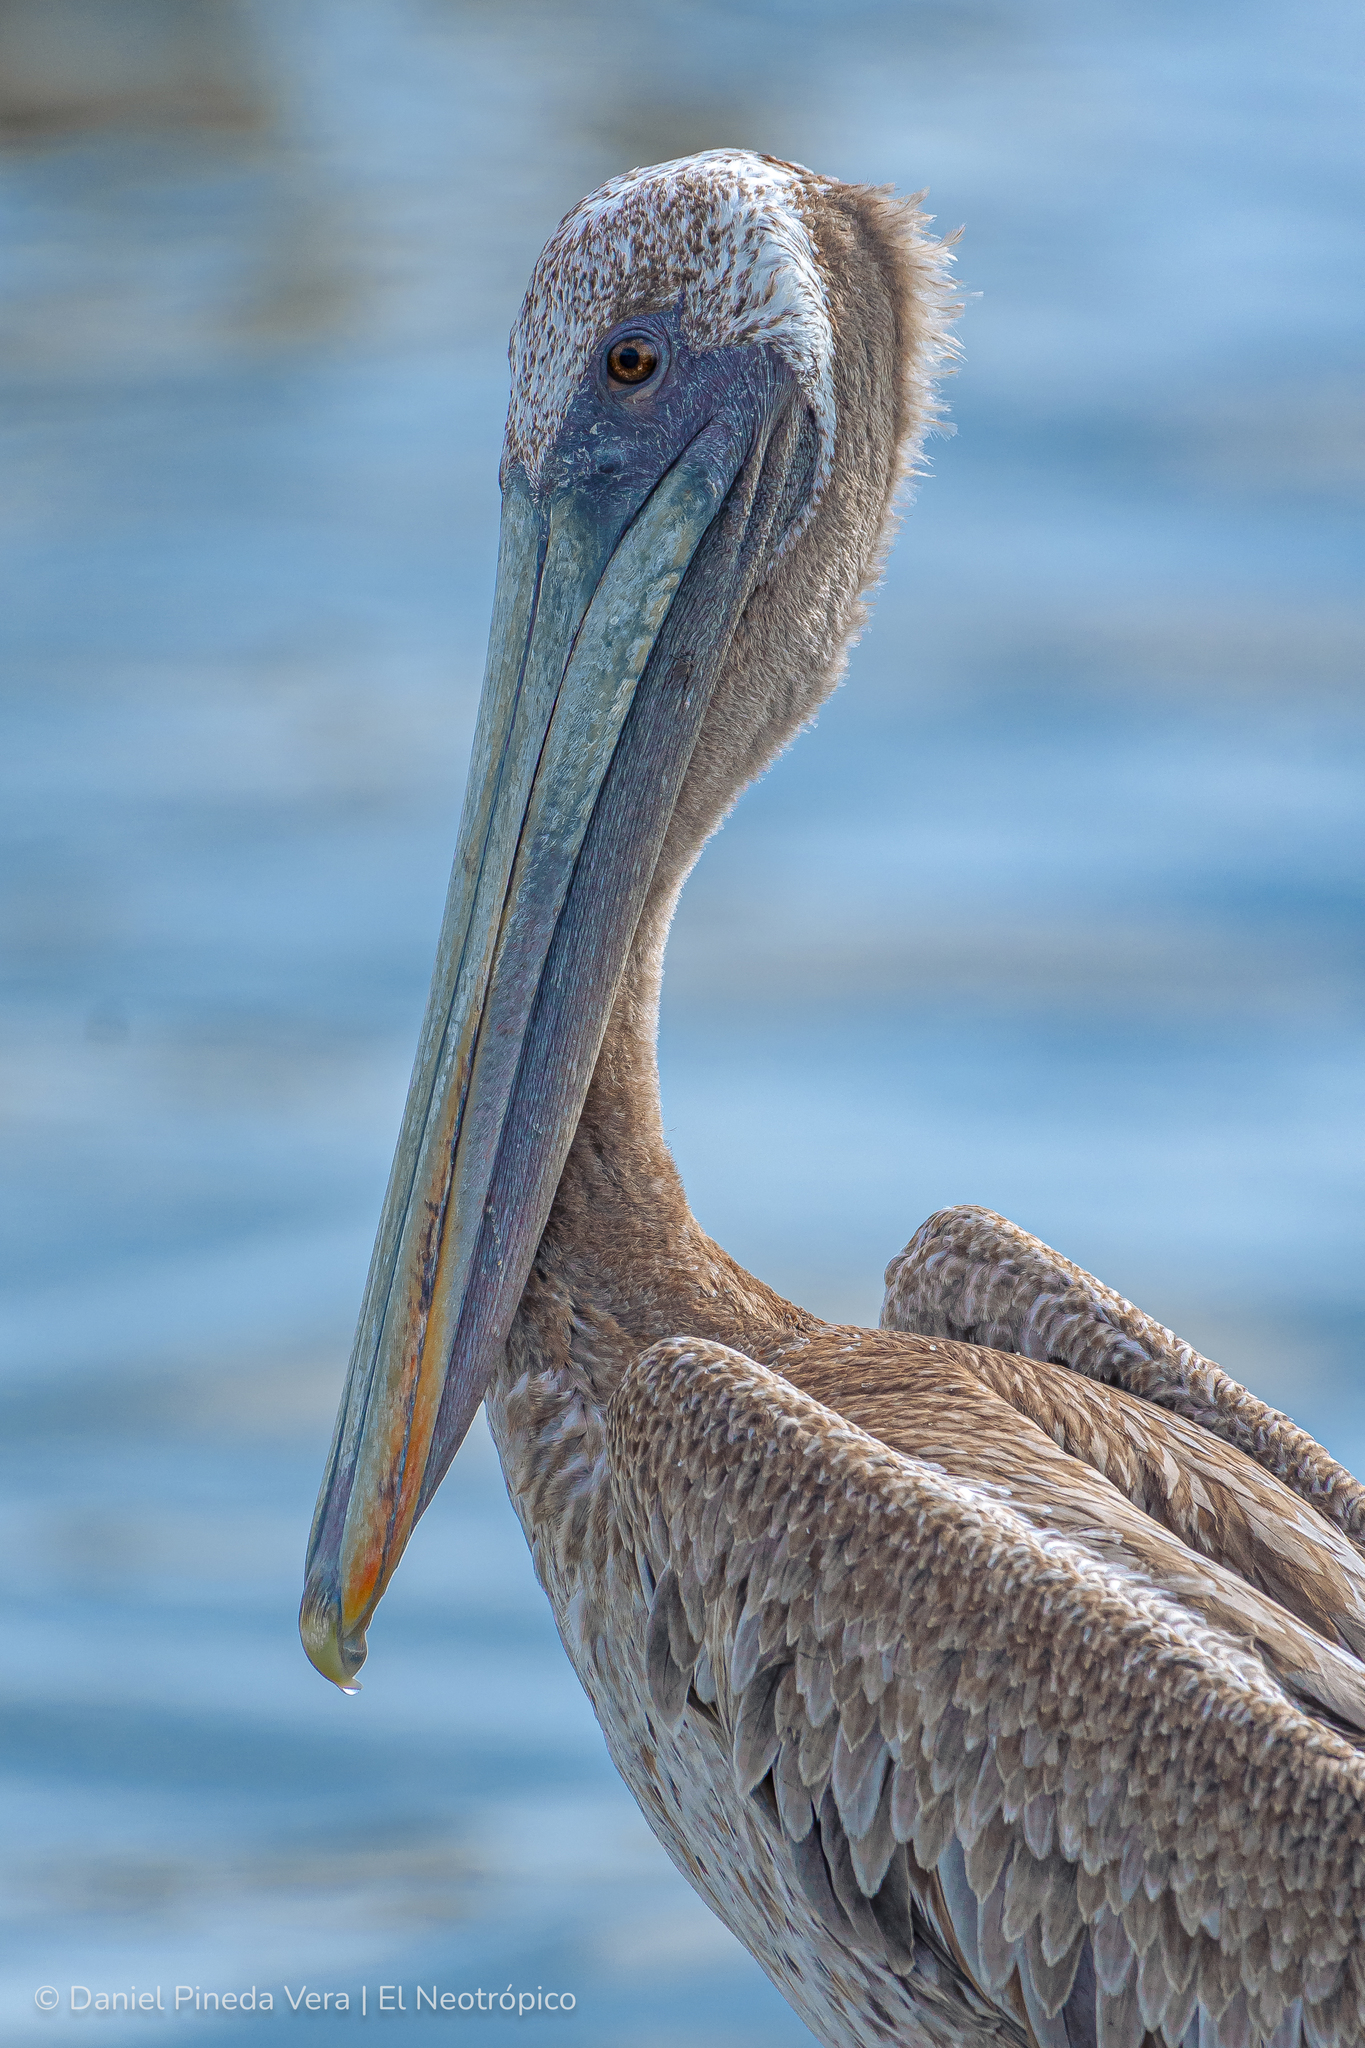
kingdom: Animalia
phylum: Chordata
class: Aves
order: Pelecaniformes
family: Pelecanidae
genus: Pelecanus
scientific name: Pelecanus occidentalis
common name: Brown pelican
